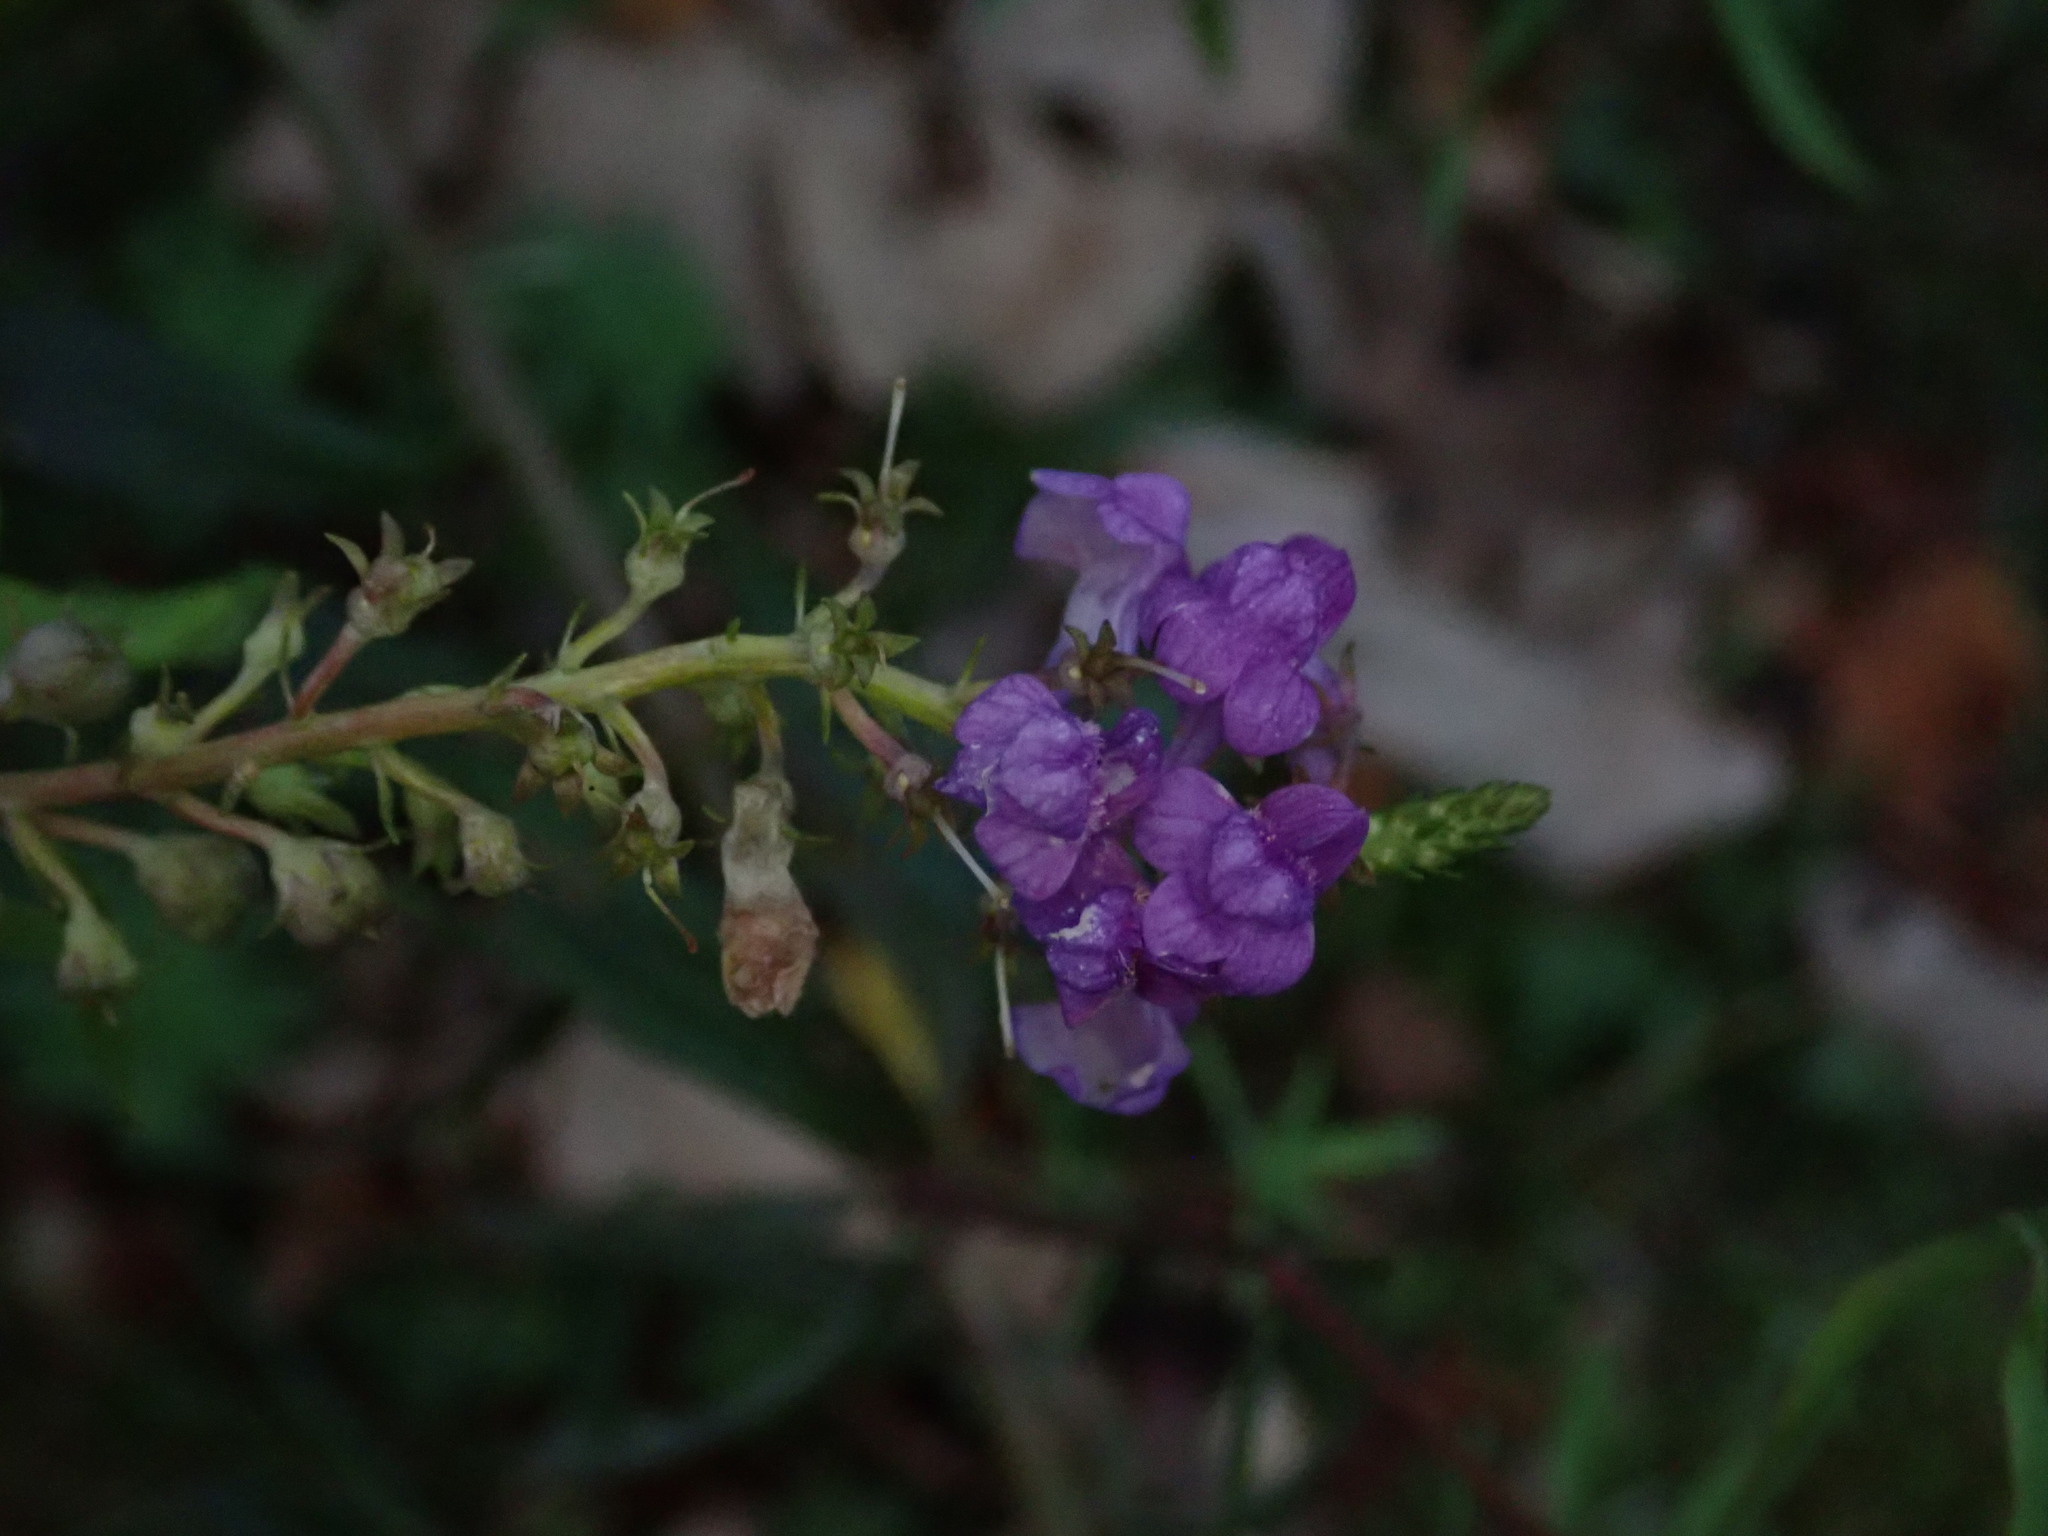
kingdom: Plantae
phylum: Tracheophyta
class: Magnoliopsida
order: Lamiales
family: Plantaginaceae
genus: Linaria
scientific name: Linaria purpurea
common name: Purple toadflax
